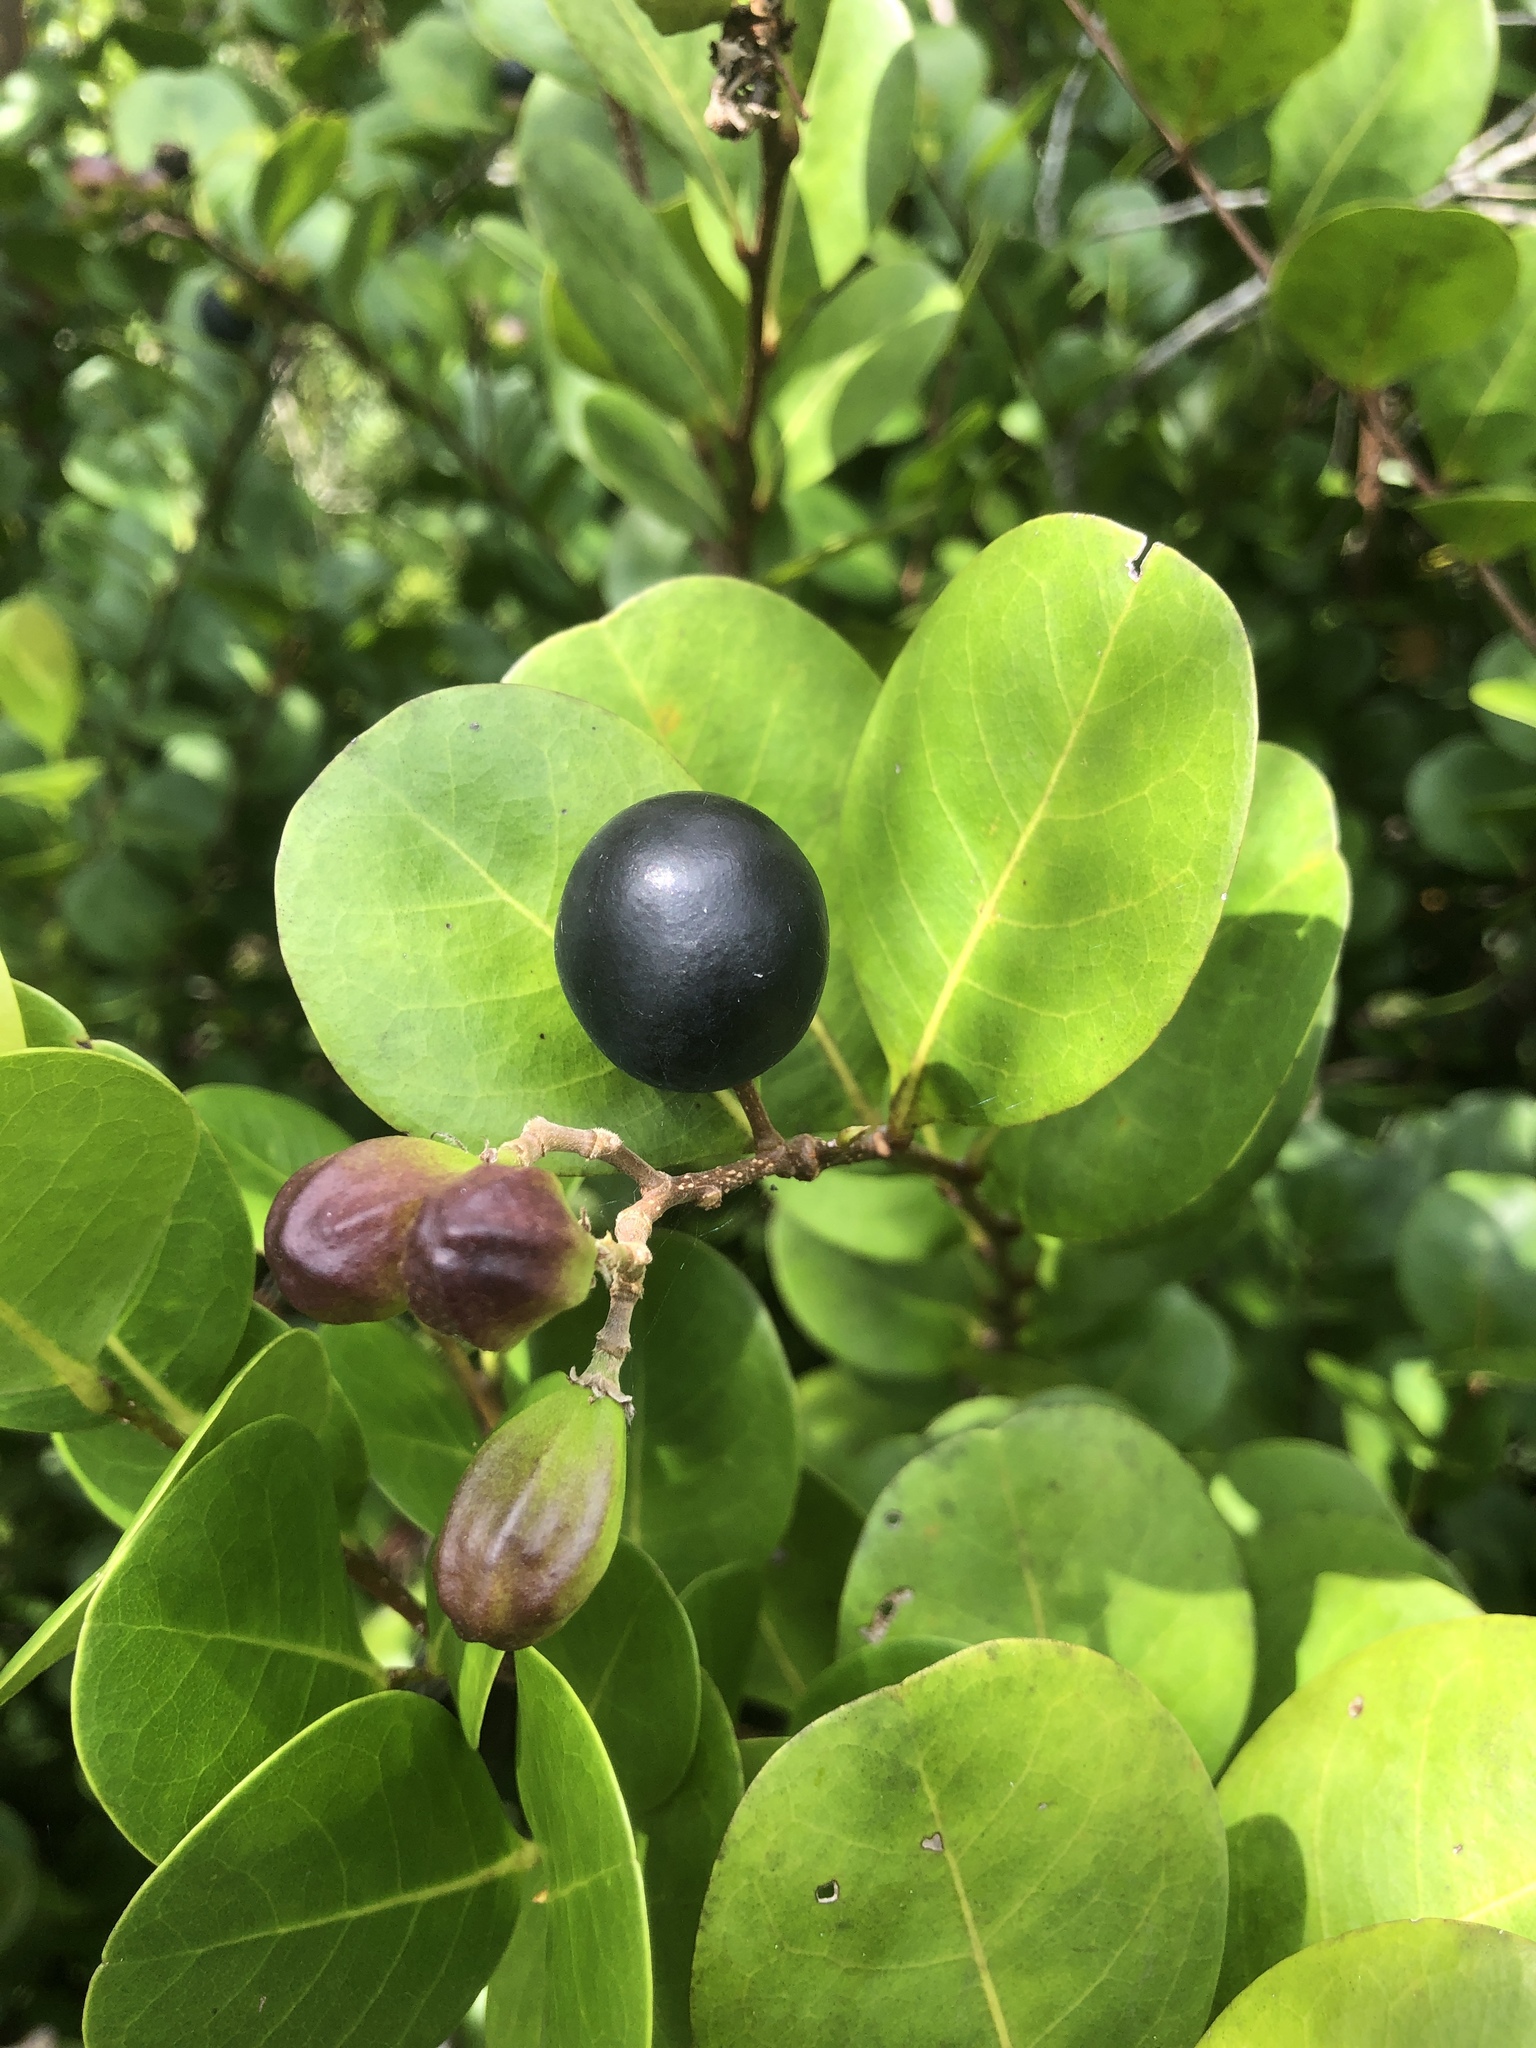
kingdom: Plantae
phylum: Tracheophyta
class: Magnoliopsida
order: Malpighiales
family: Chrysobalanaceae
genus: Chrysobalanus
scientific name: Chrysobalanus icaco
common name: Coco plum
